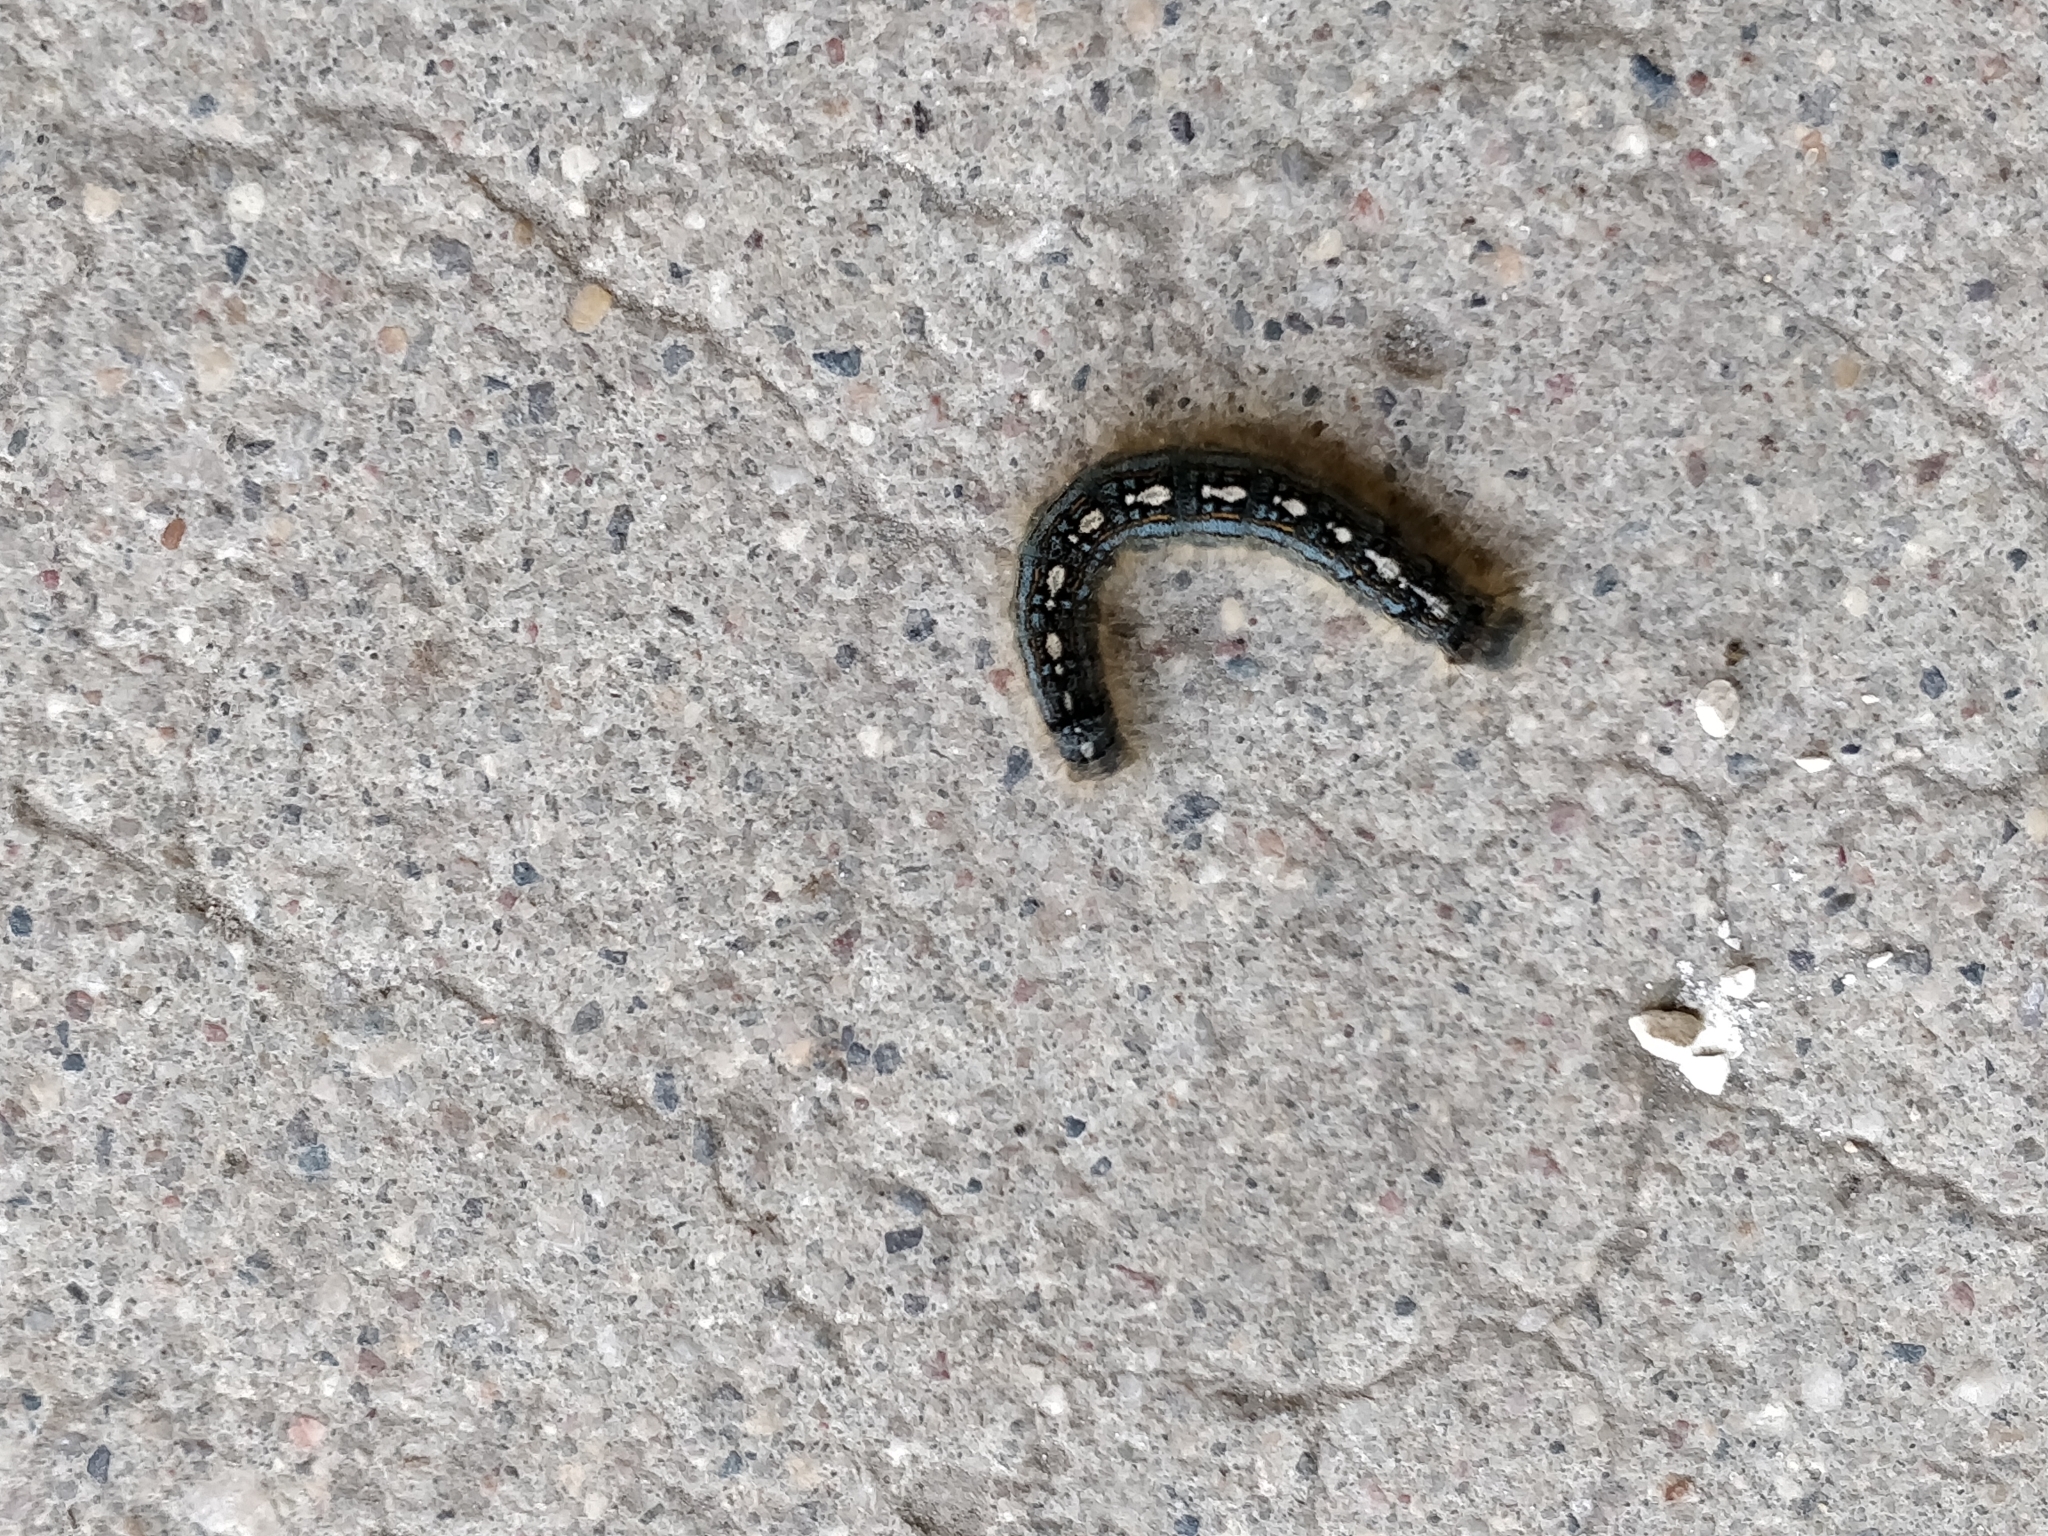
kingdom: Animalia
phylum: Arthropoda
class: Insecta
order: Lepidoptera
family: Lasiocampidae
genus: Malacosoma
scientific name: Malacosoma disstria
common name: Forest tent caterpillar
